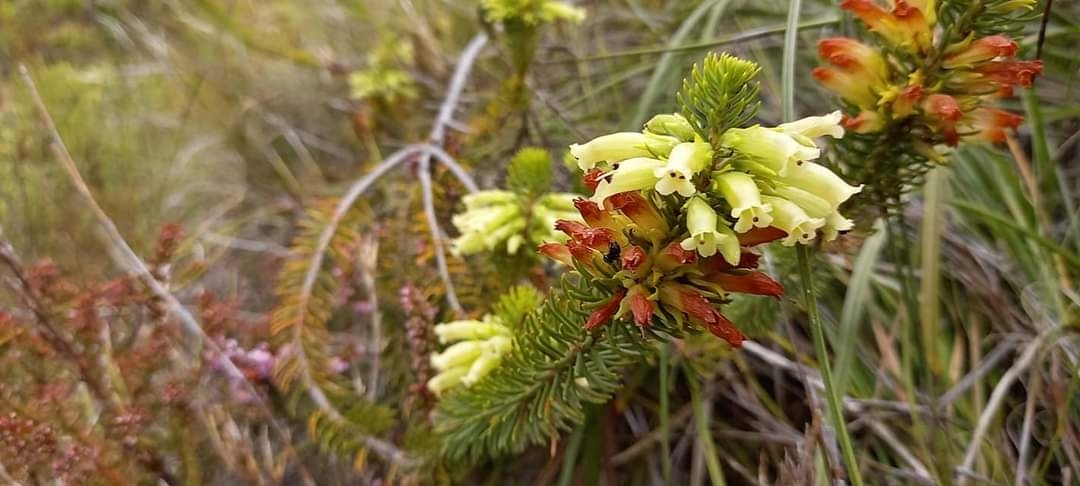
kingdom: Plantae
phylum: Tracheophyta
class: Magnoliopsida
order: Ericales
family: Ericaceae
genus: Erica
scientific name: Erica viscaria
